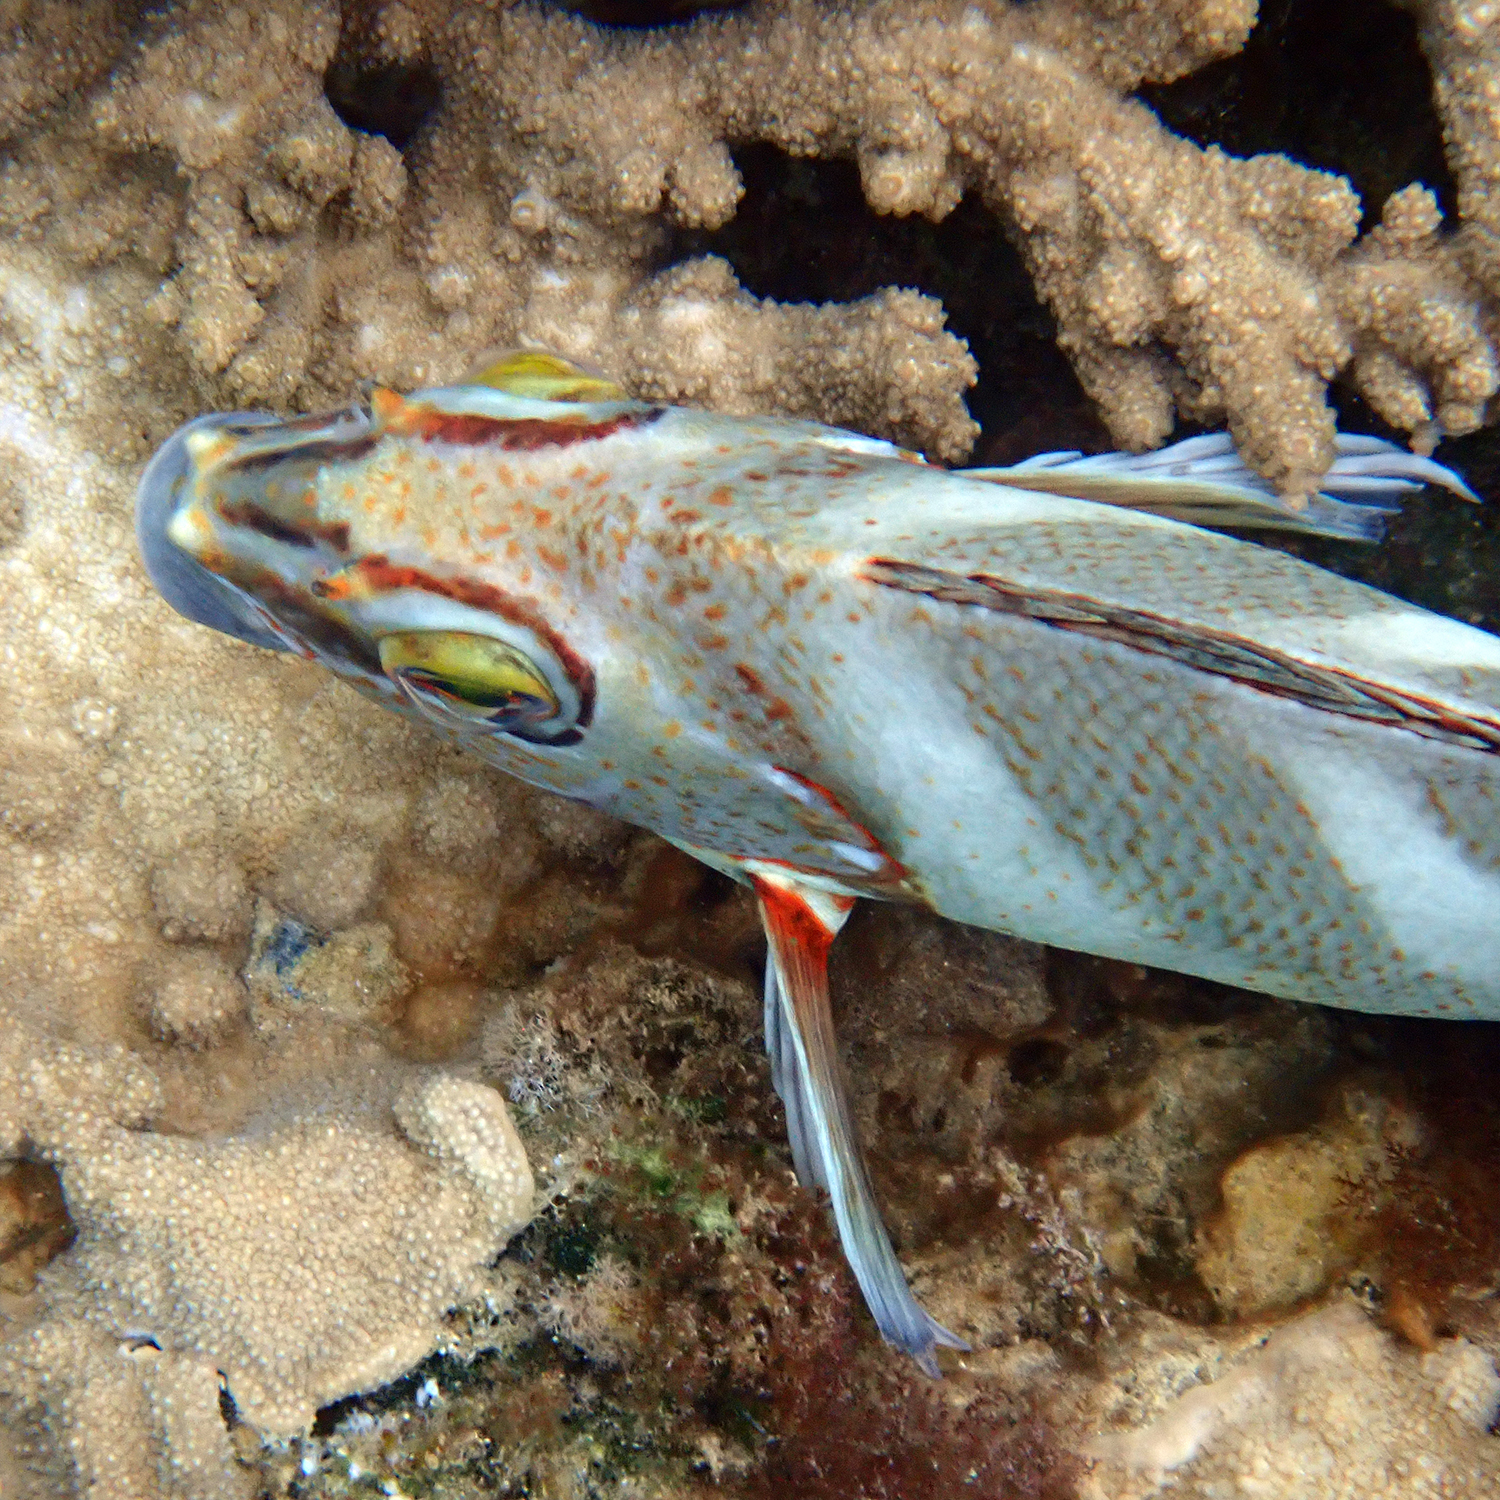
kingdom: Animalia
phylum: Chordata
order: Perciformes
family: Latridae
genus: Morwong
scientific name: Morwong ephippium
